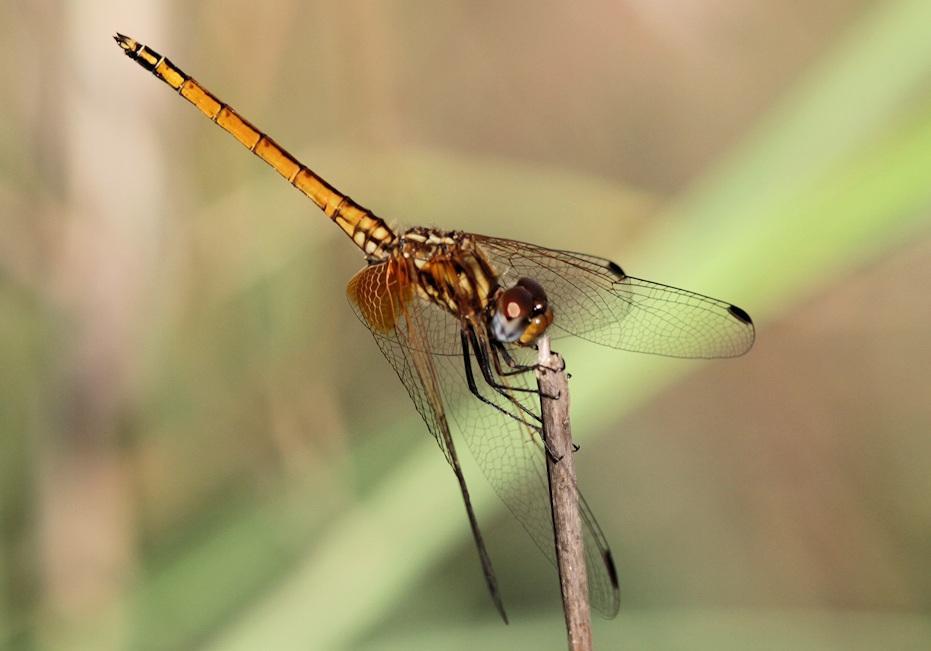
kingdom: Animalia
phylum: Arthropoda
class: Insecta
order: Odonata
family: Libellulidae
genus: Trithemis
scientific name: Trithemis pluvialis
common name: Russet dropwing
